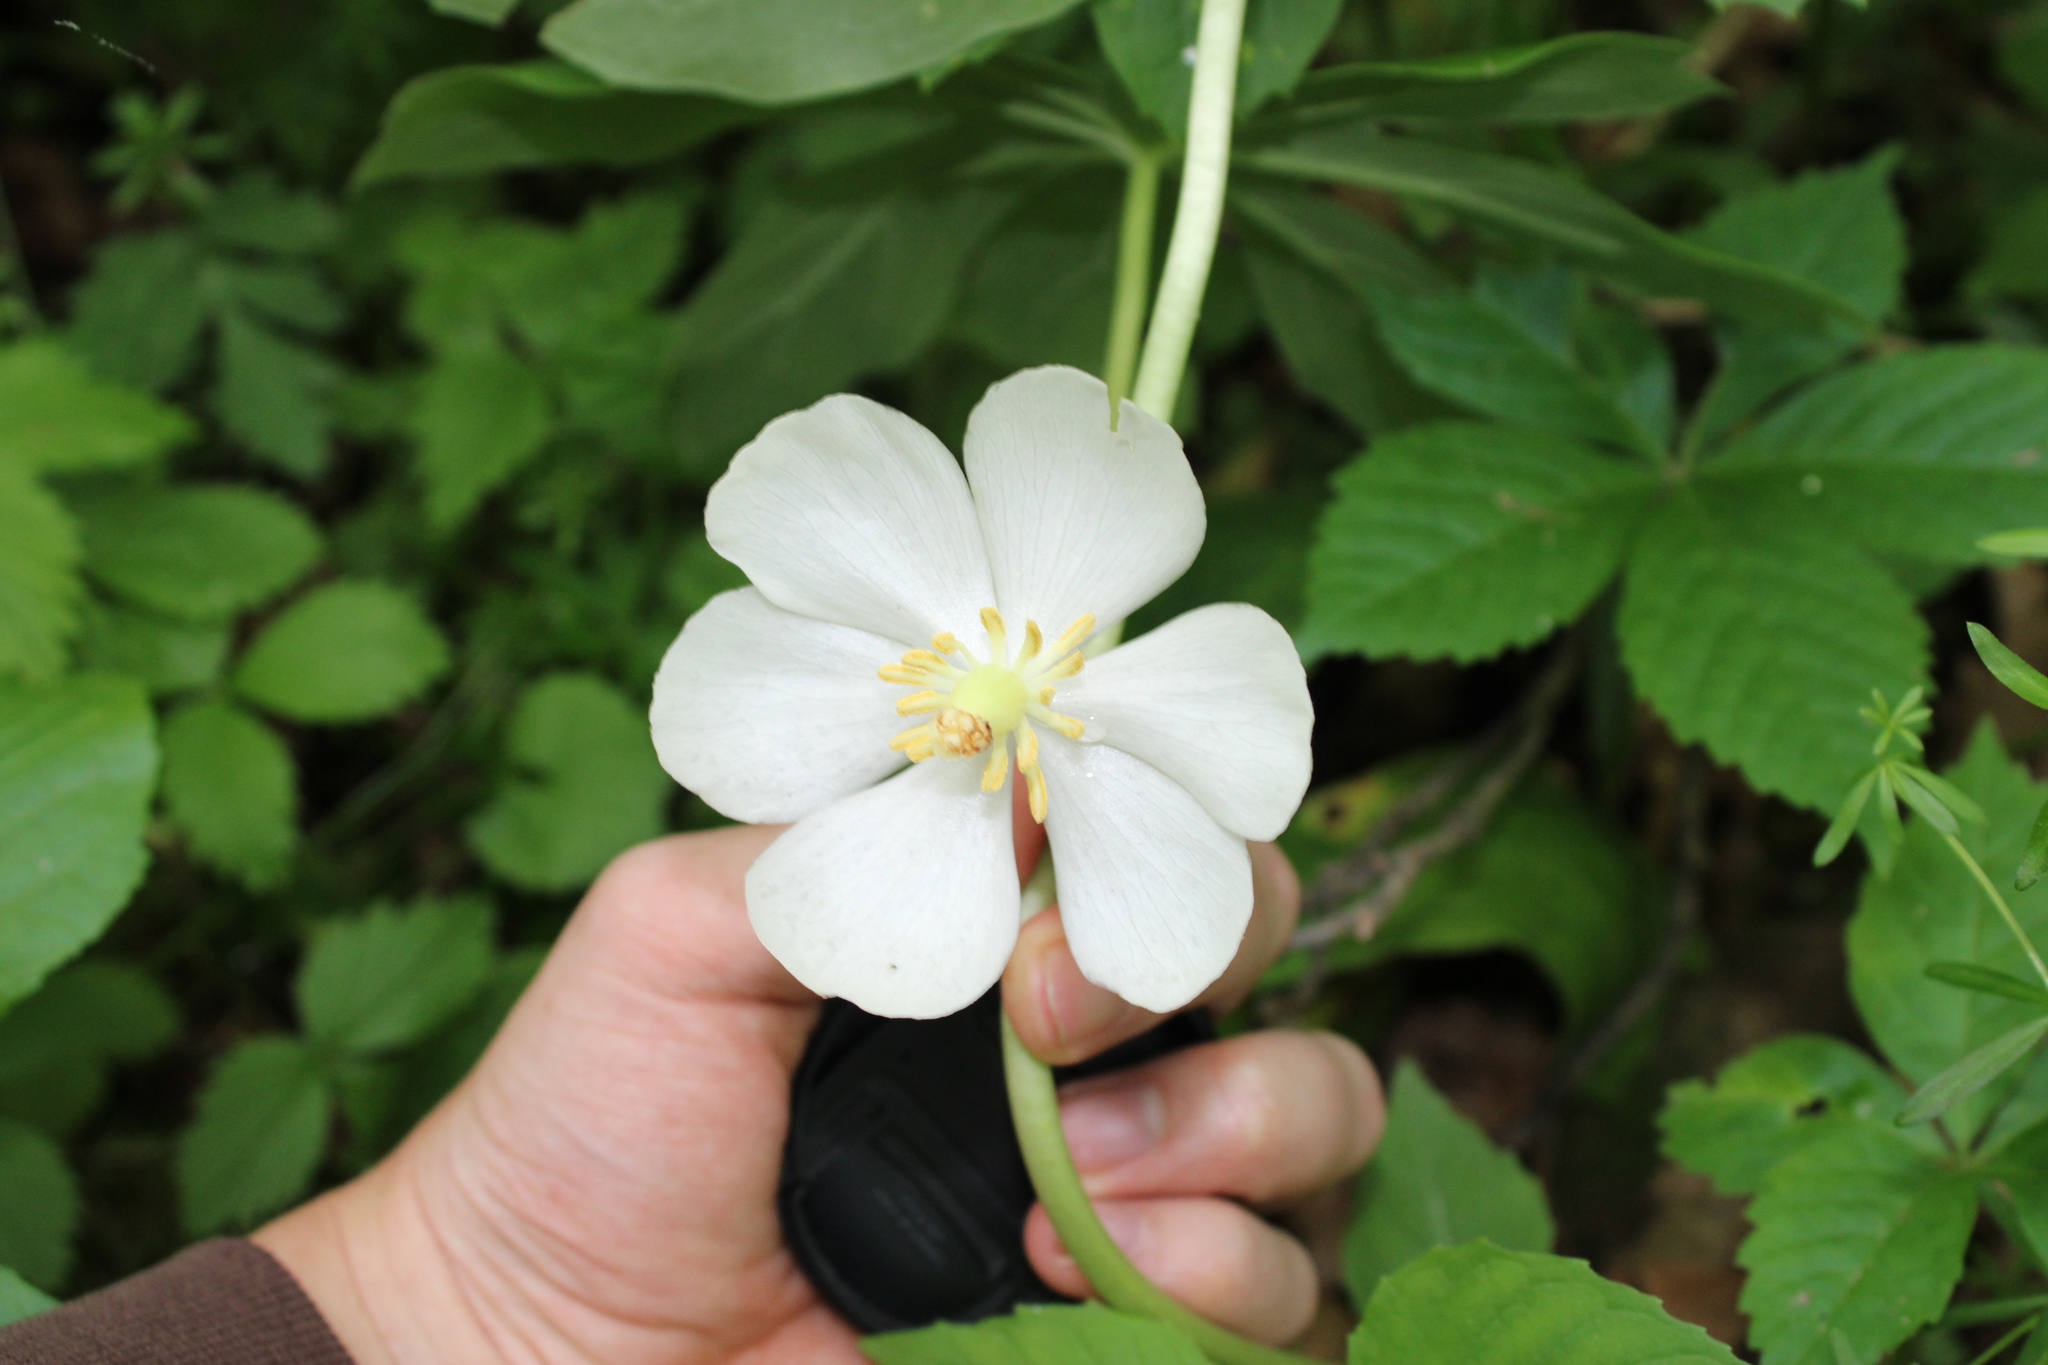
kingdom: Plantae
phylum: Tracheophyta
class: Magnoliopsida
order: Ranunculales
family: Berberidaceae
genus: Podophyllum
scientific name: Podophyllum peltatum
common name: Wild mandrake
